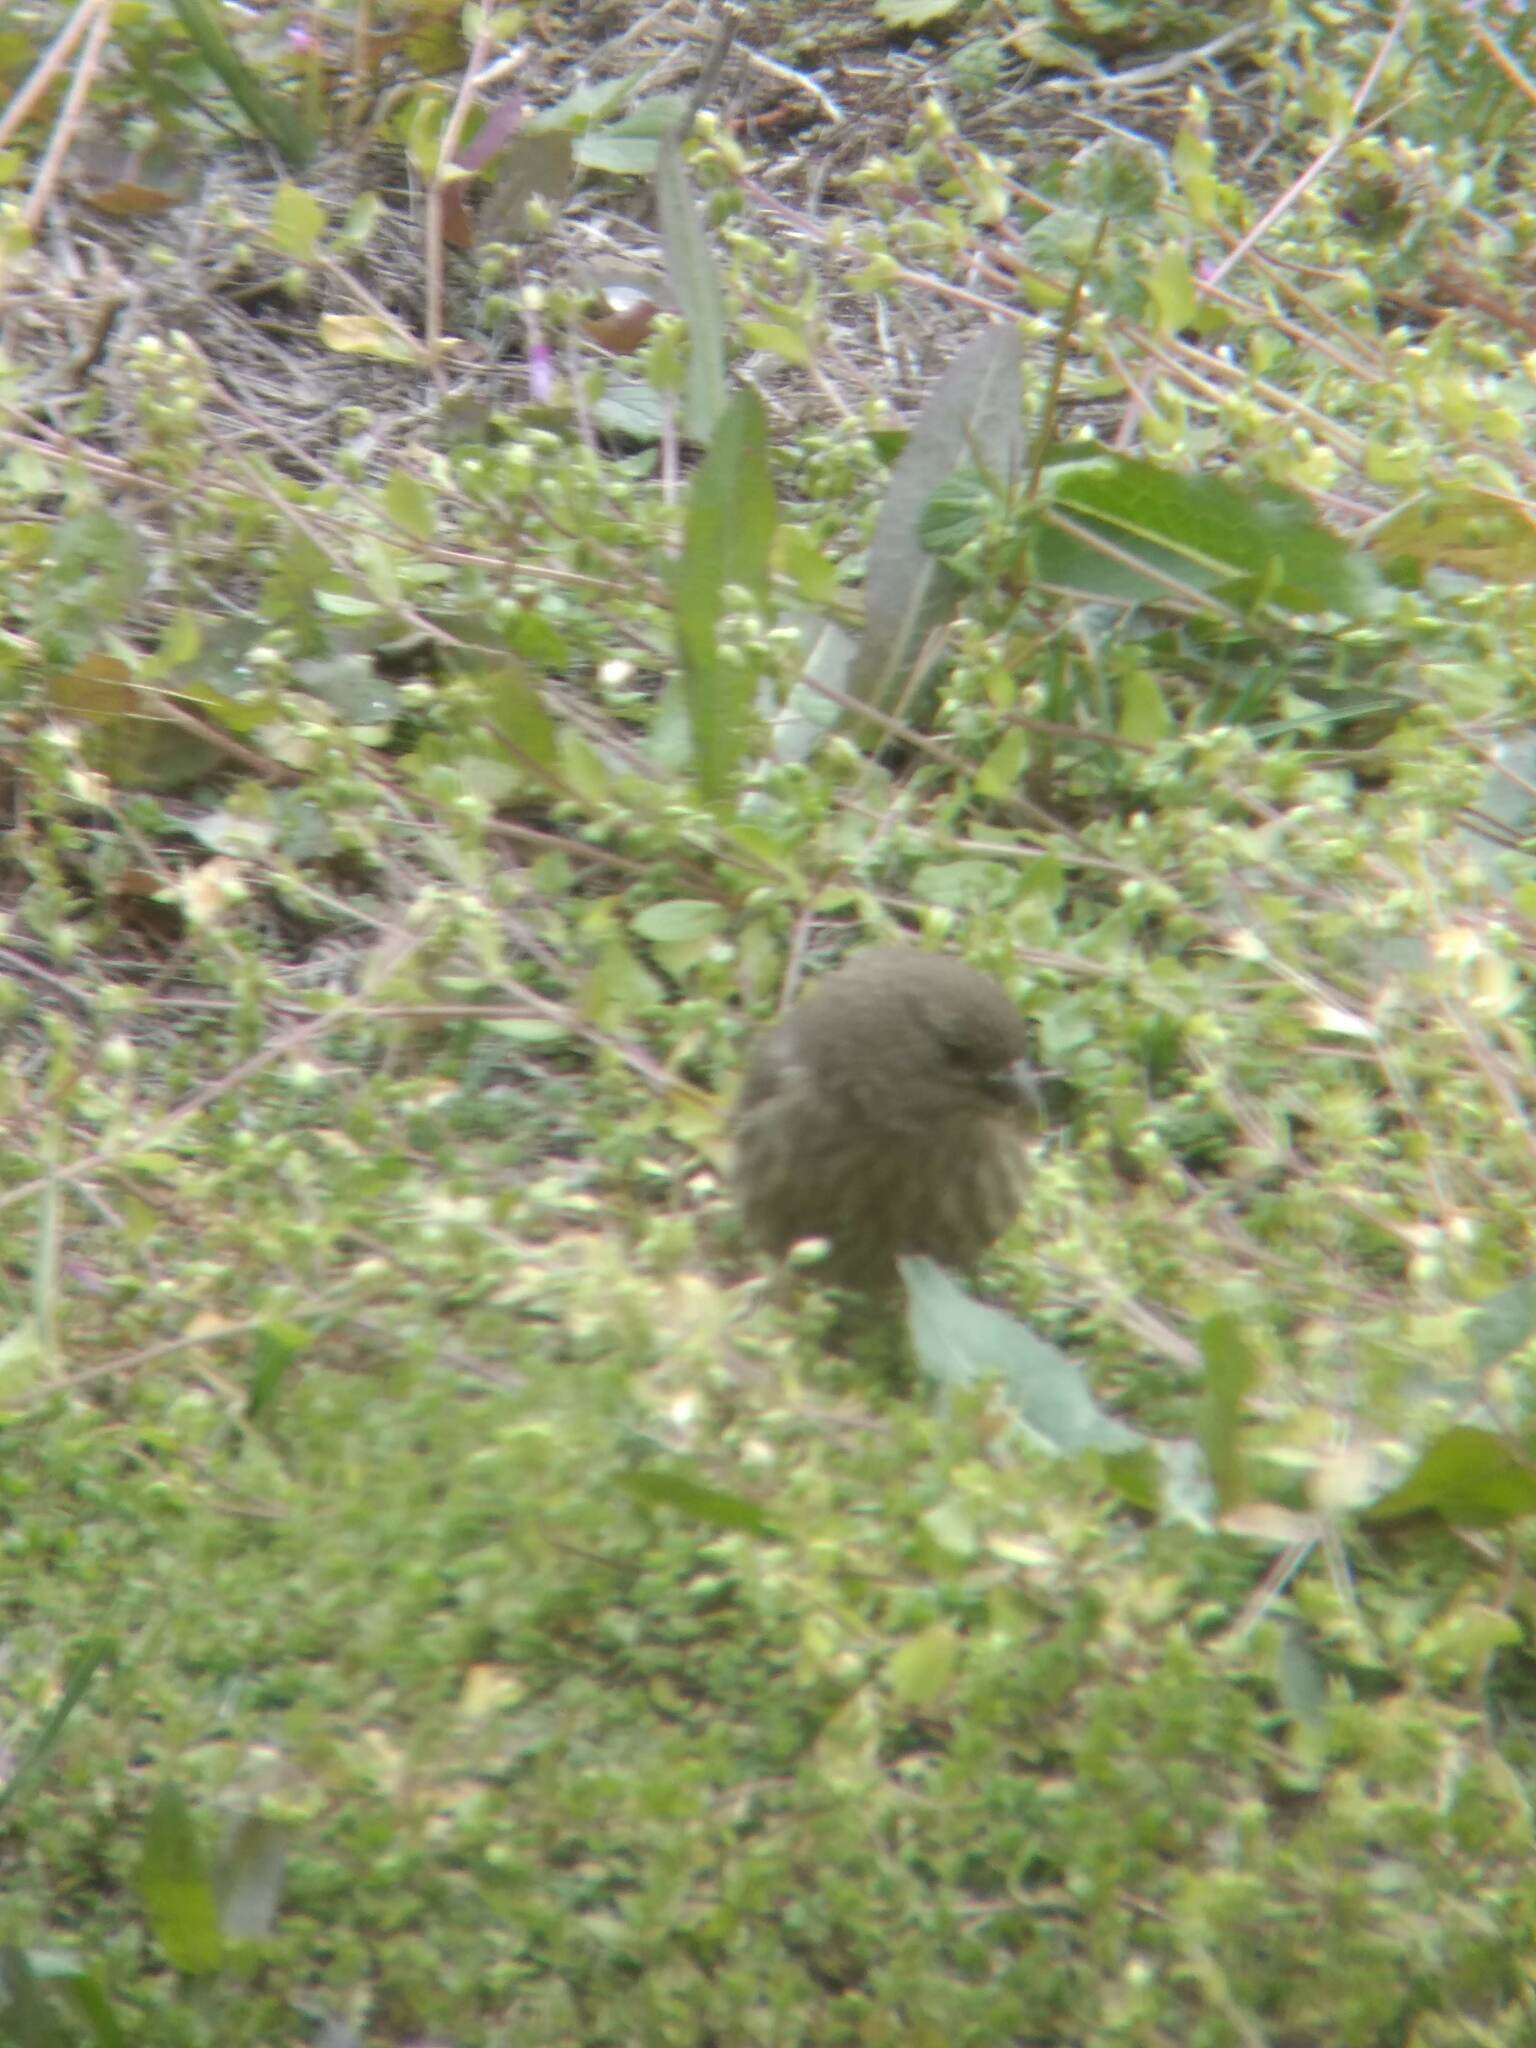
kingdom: Animalia
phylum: Chordata
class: Aves
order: Passeriformes
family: Fringillidae
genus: Haemorhous
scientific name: Haemorhous mexicanus
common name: House finch
